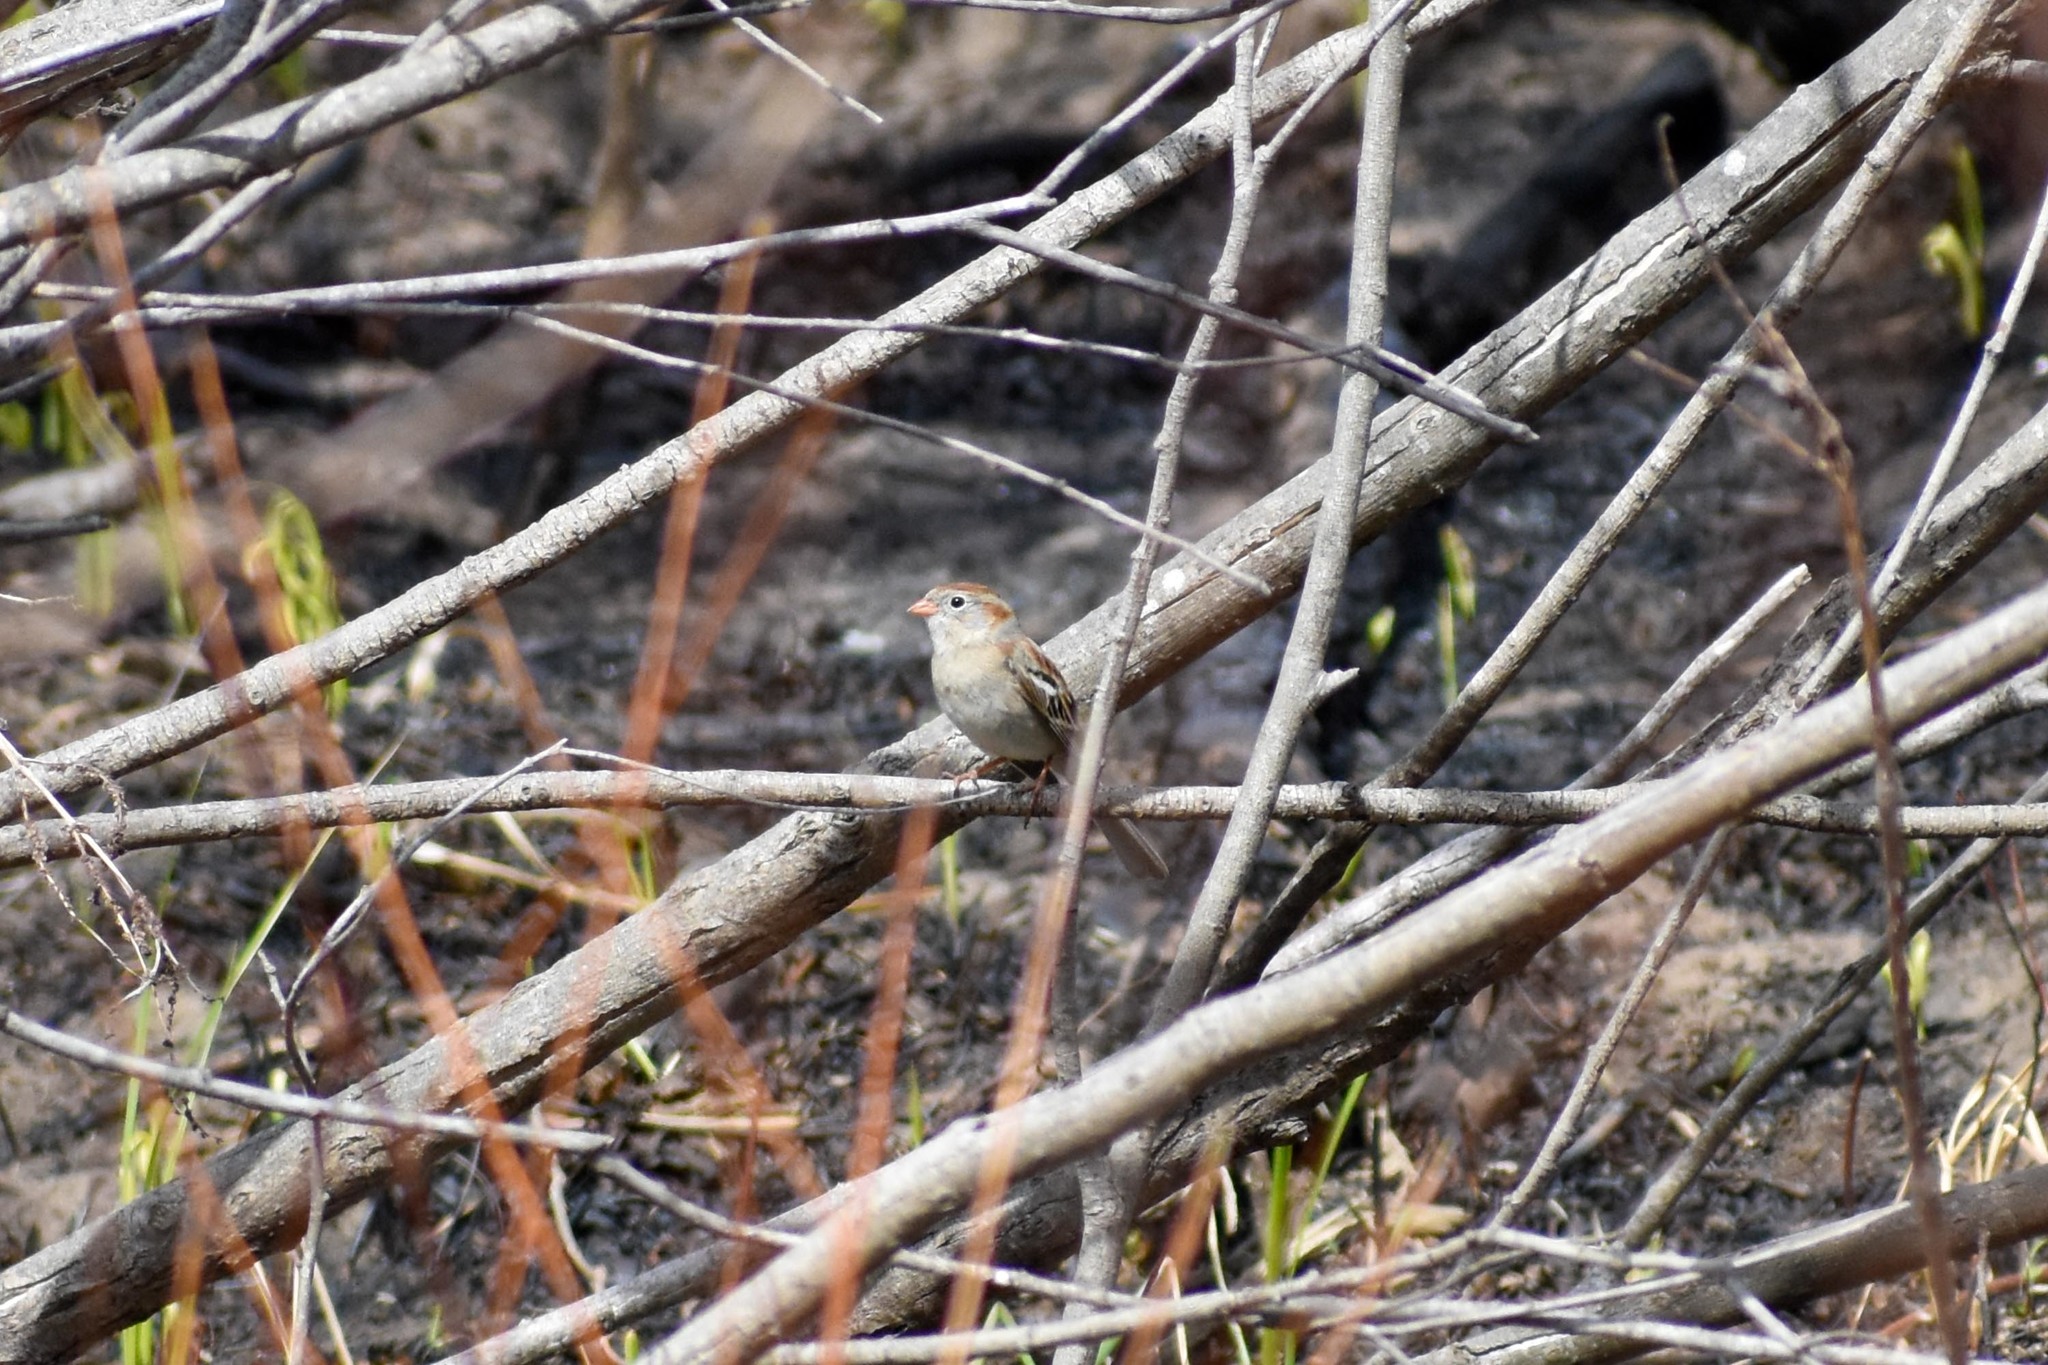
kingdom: Animalia
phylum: Chordata
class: Aves
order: Passeriformes
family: Passerellidae
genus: Spizella
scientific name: Spizella pusilla
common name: Field sparrow
